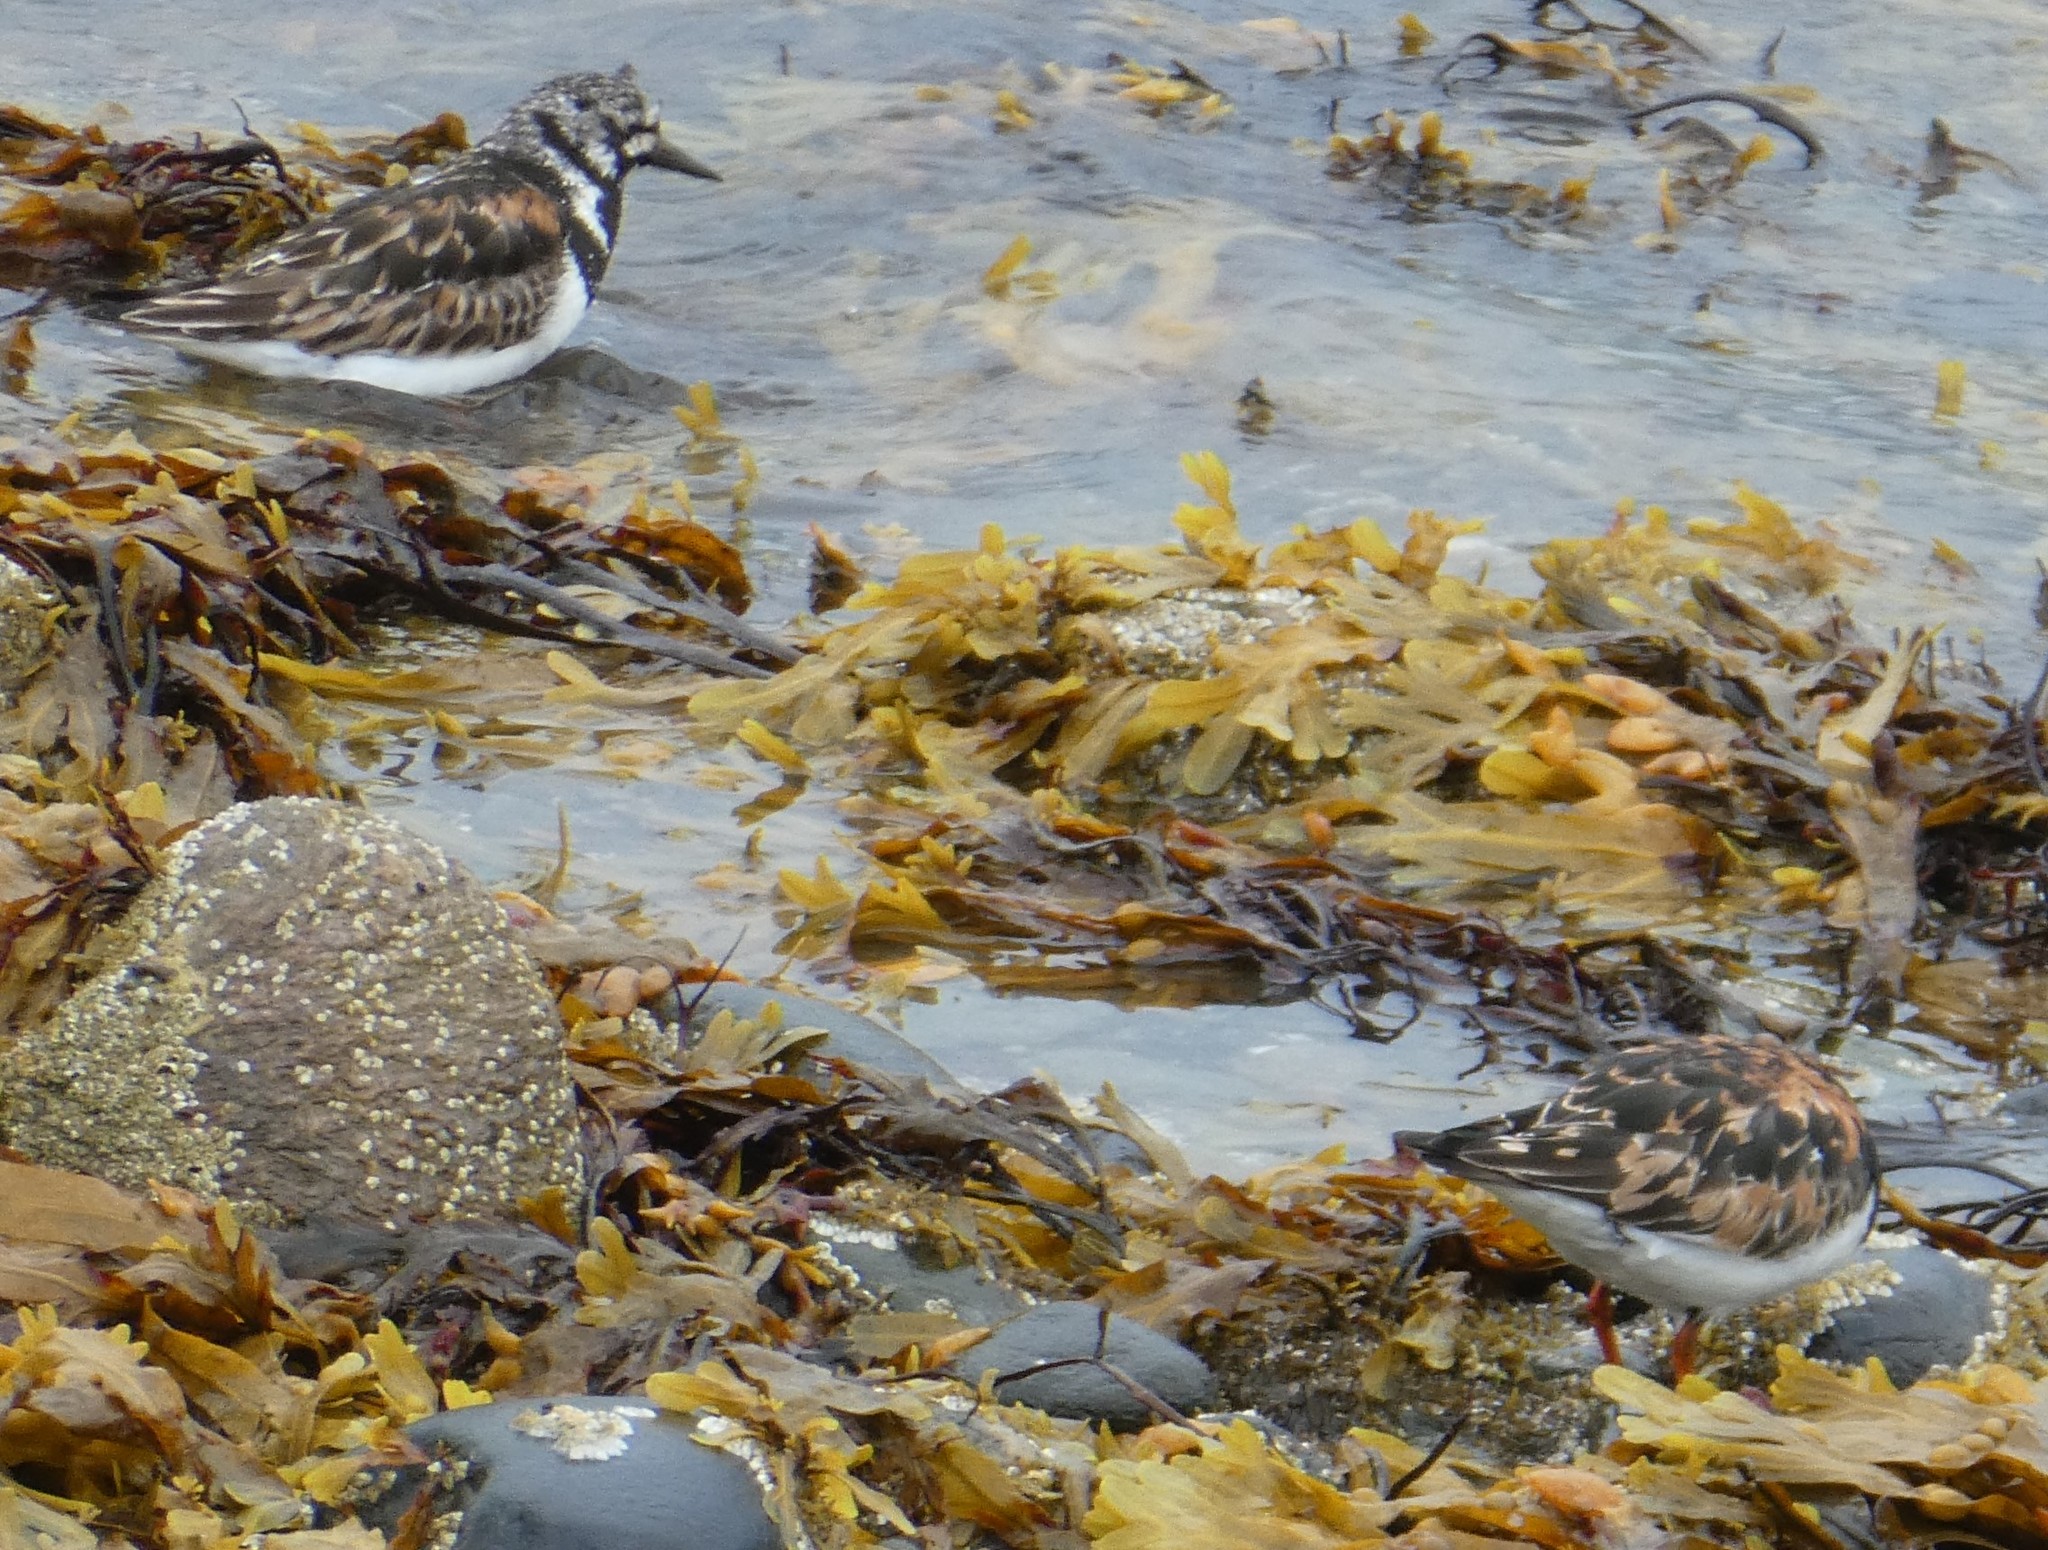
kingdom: Animalia
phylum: Chordata
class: Aves
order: Charadriiformes
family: Scolopacidae
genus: Arenaria
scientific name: Arenaria interpres
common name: Ruddy turnstone
